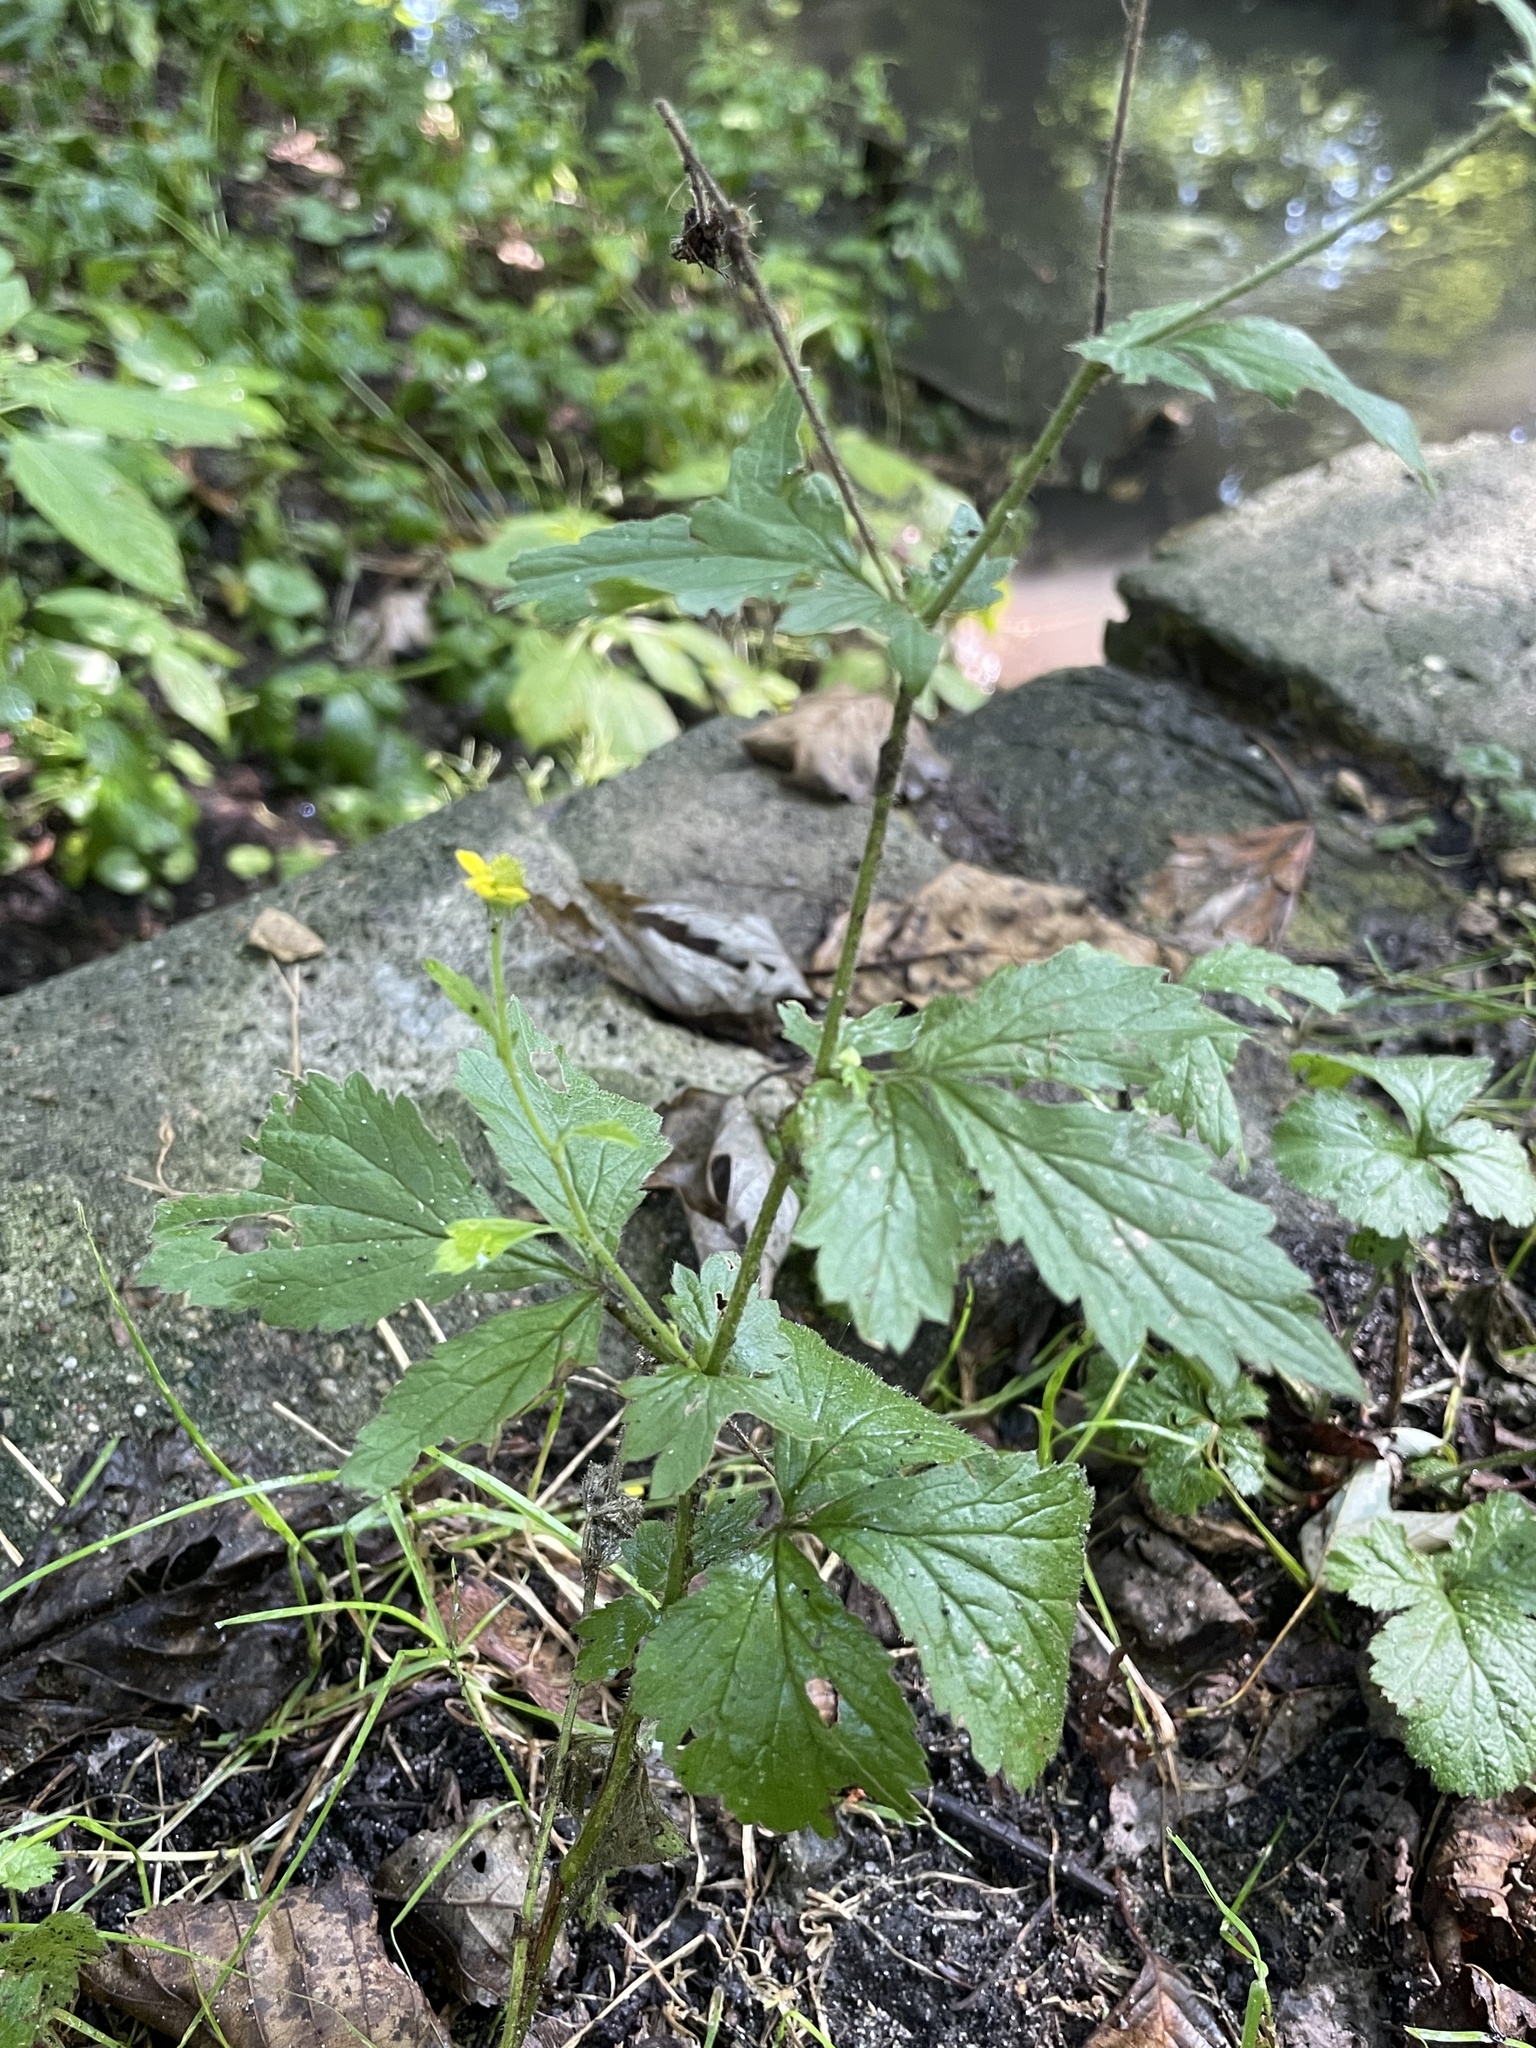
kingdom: Plantae
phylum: Tracheophyta
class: Magnoliopsida
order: Rosales
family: Rosaceae
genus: Geum
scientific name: Geum urbanum
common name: Wood avens
